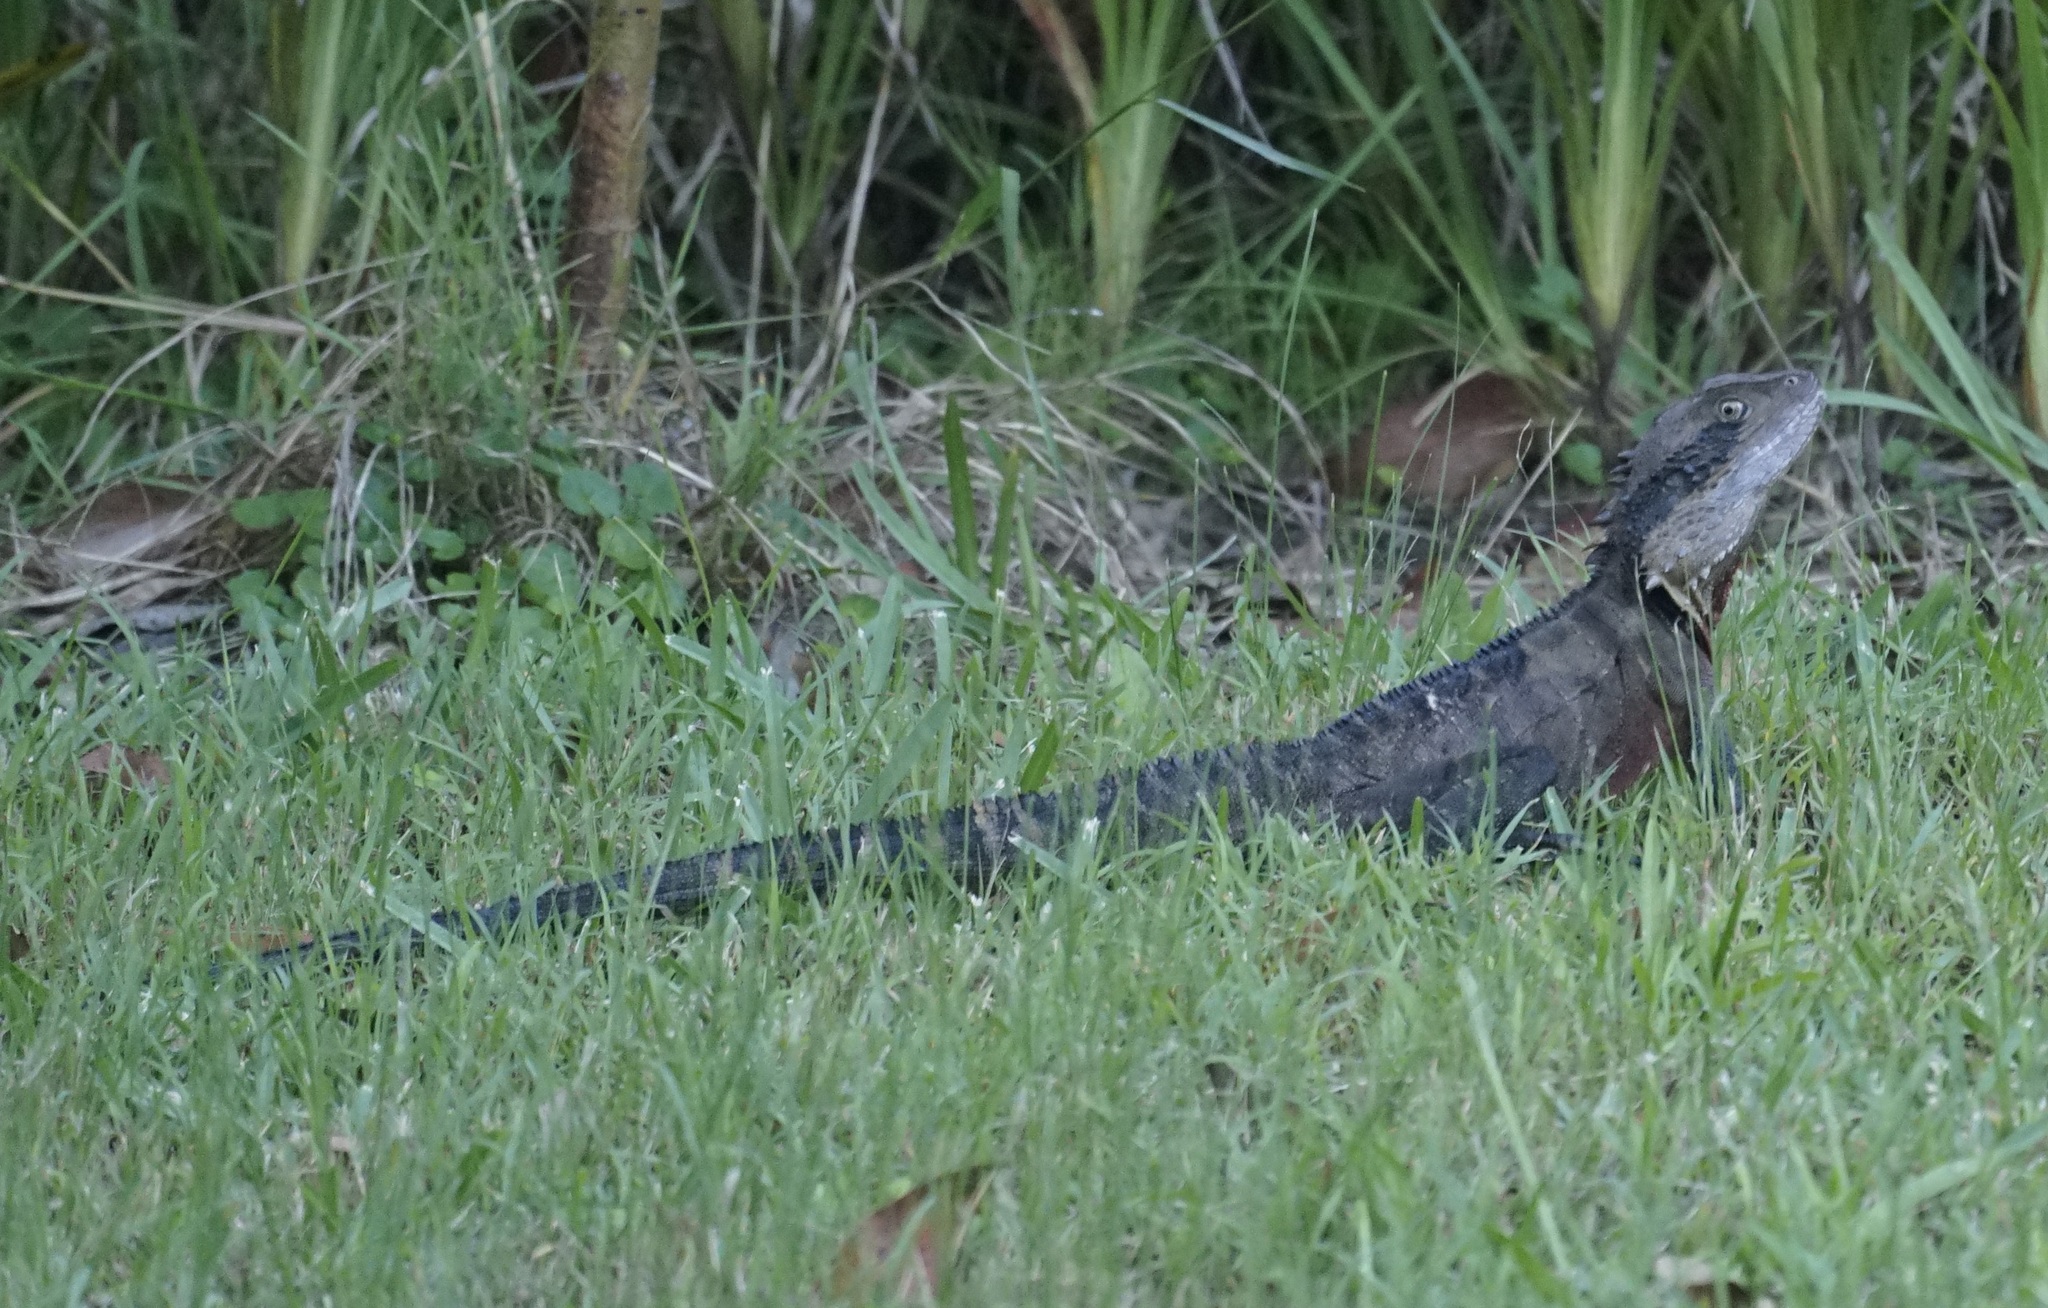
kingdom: Animalia
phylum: Chordata
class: Squamata
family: Agamidae
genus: Intellagama
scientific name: Intellagama lesueurii
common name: Eastern water dragon
